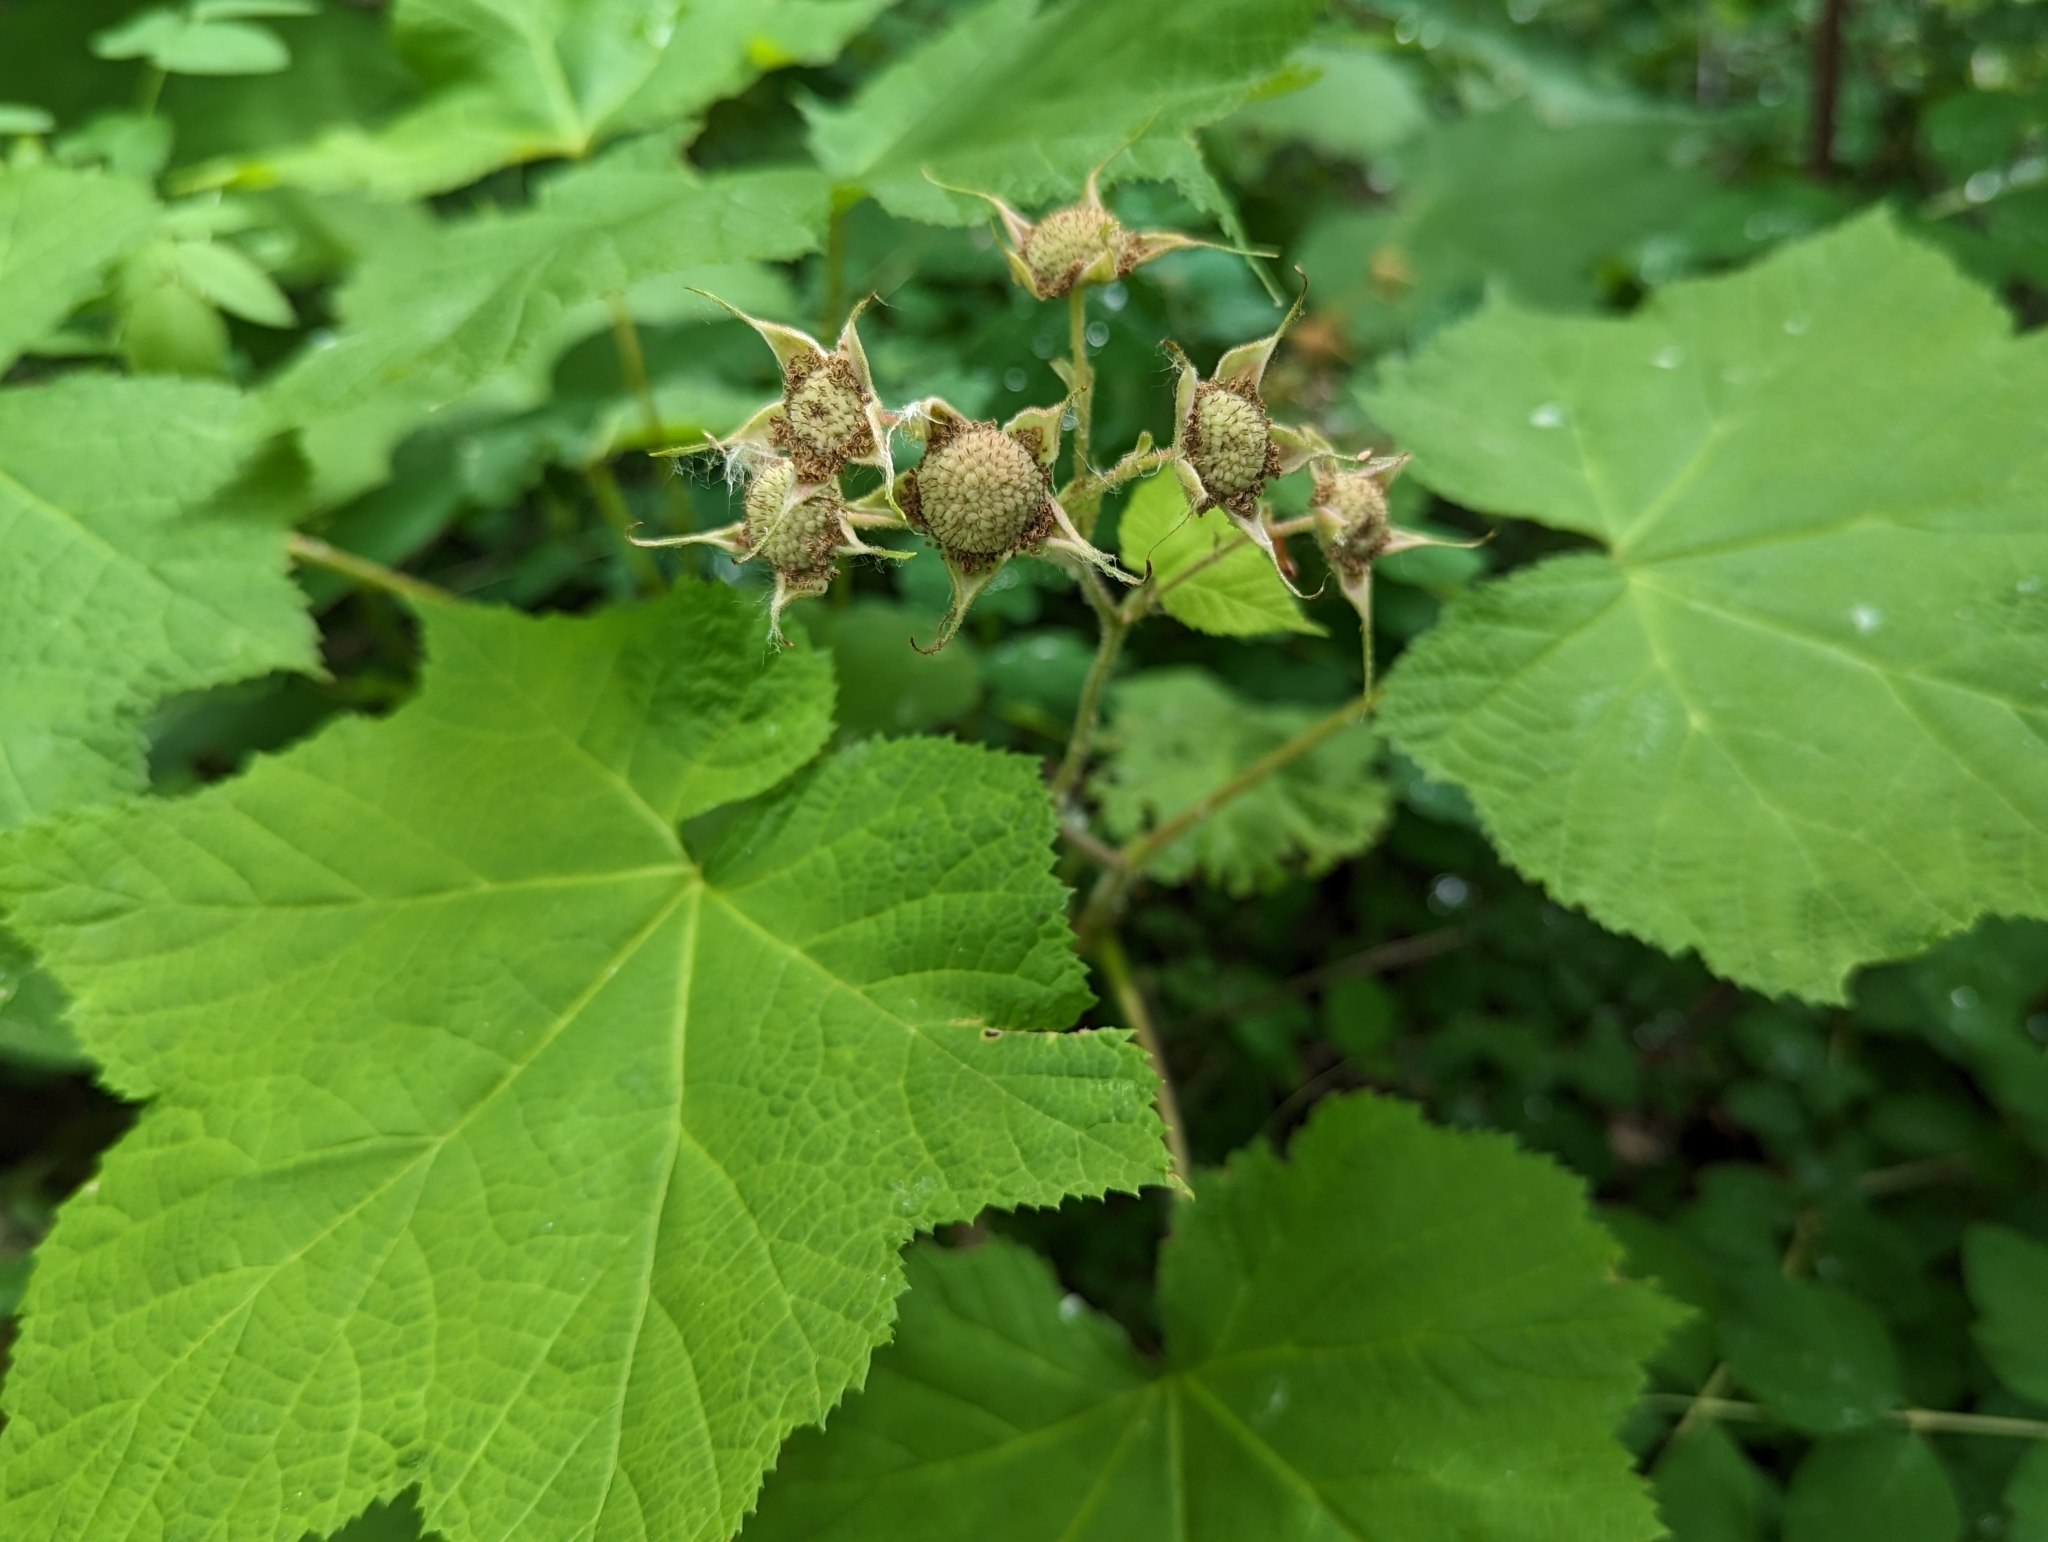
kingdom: Plantae
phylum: Tracheophyta
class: Magnoliopsida
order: Rosales
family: Rosaceae
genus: Rubus
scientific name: Rubus parviflorus
